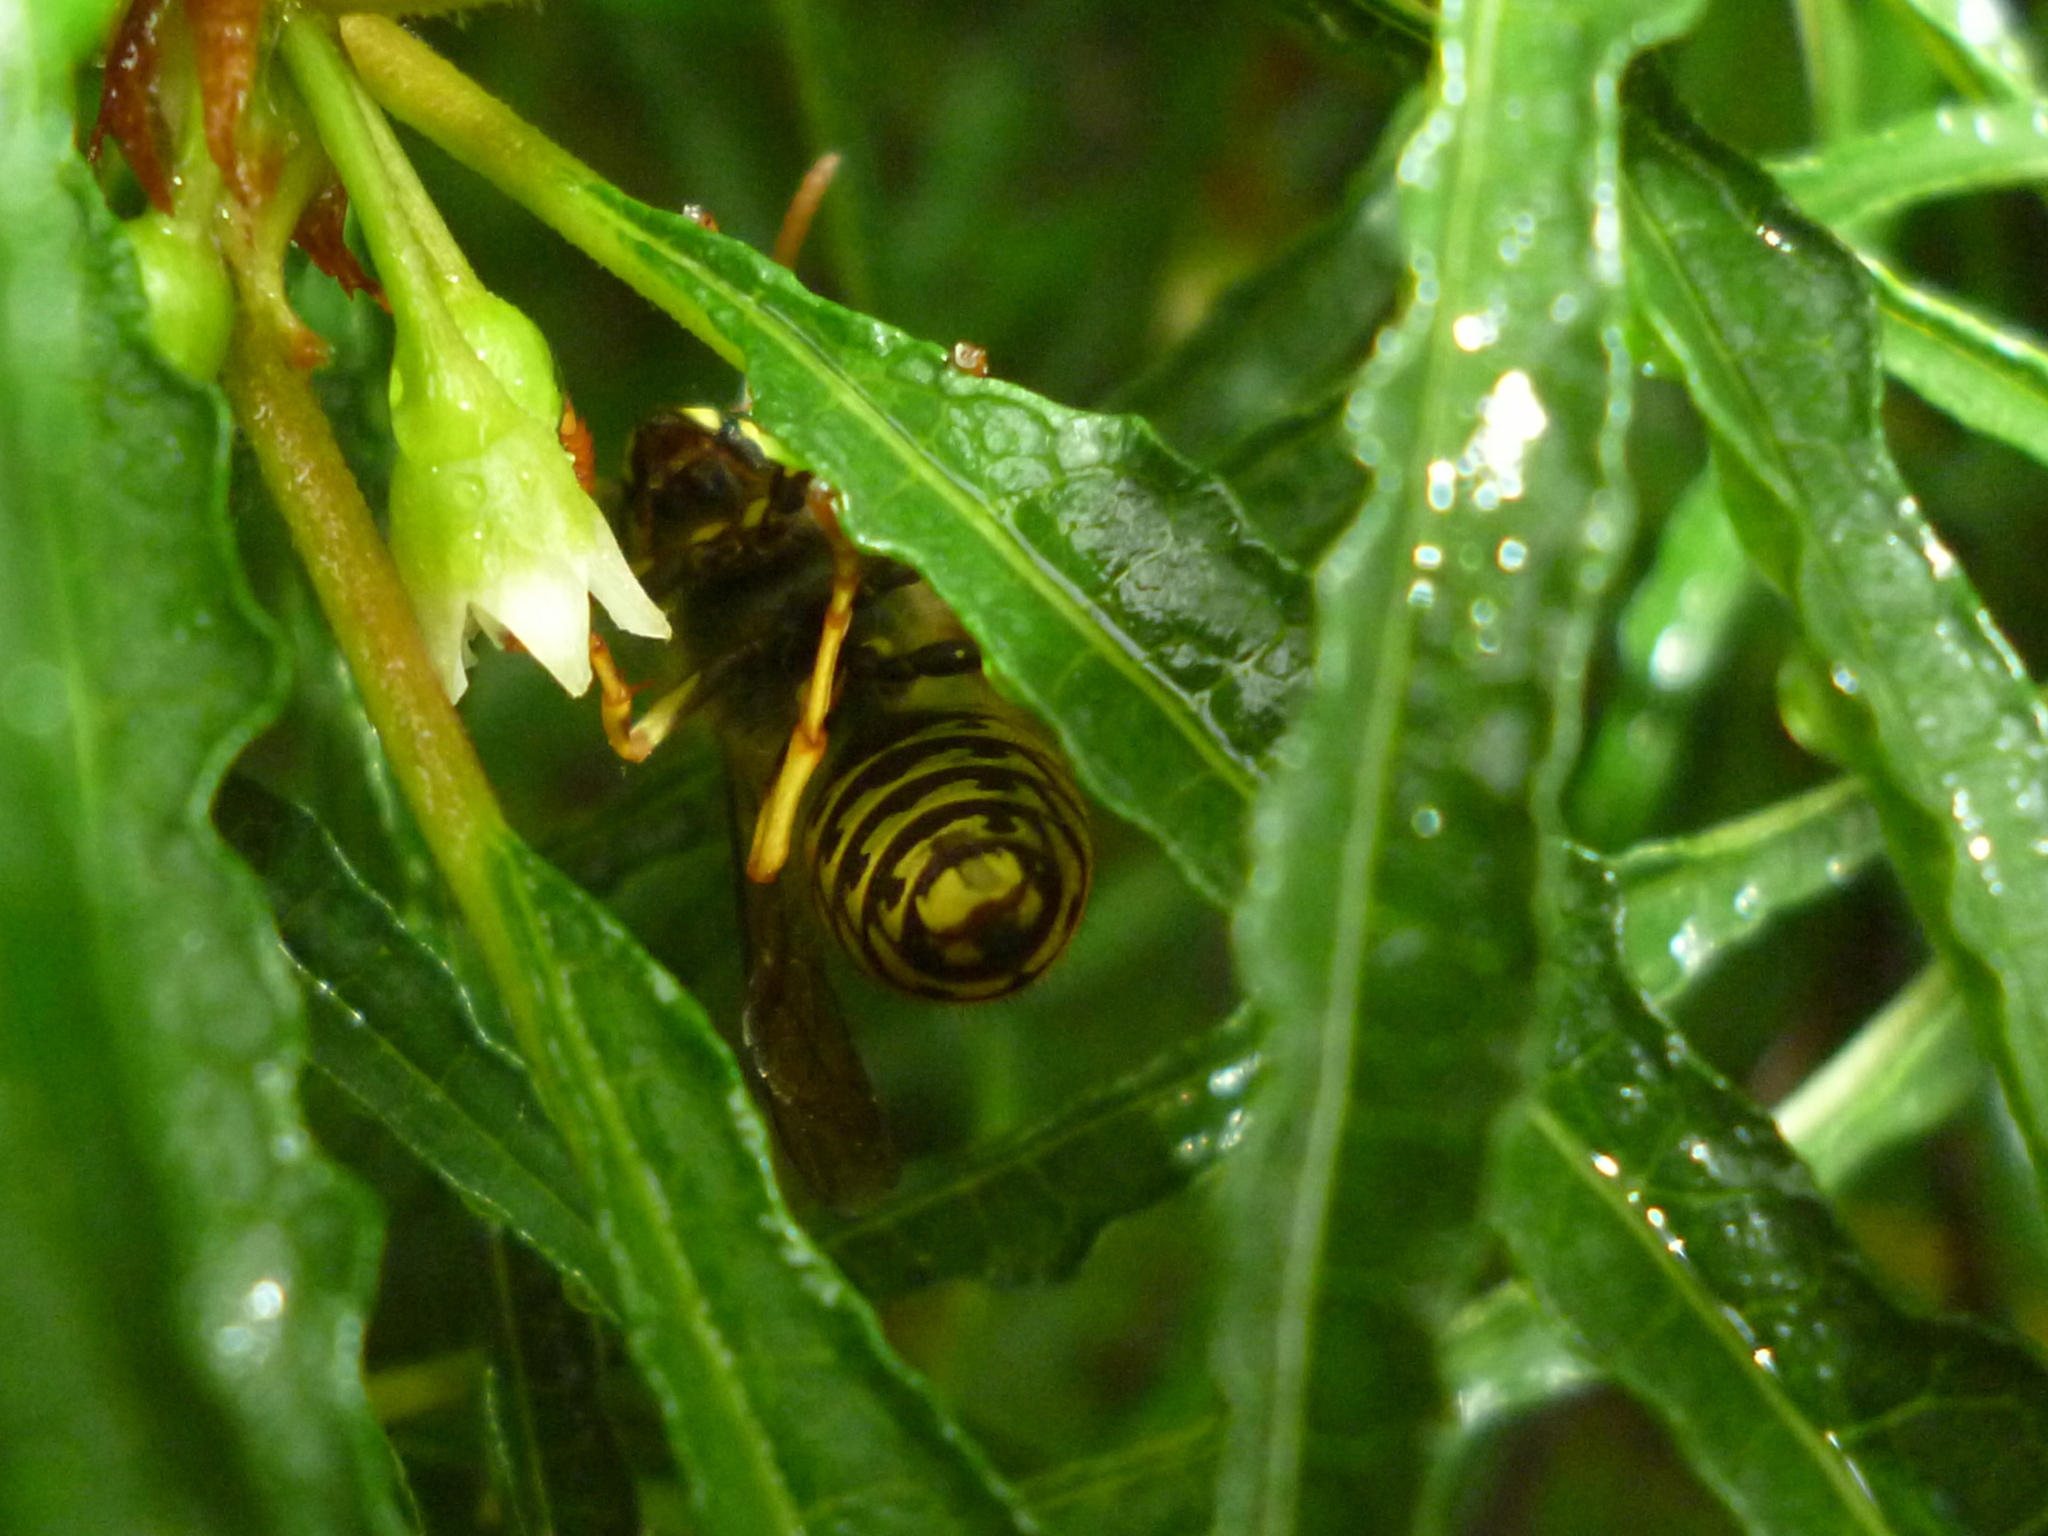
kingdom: Animalia
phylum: Arthropoda
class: Insecta
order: Hymenoptera
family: Vespidae
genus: Dolichovespula
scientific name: Dolichovespula arenaria
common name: Aerial yellowjacket
